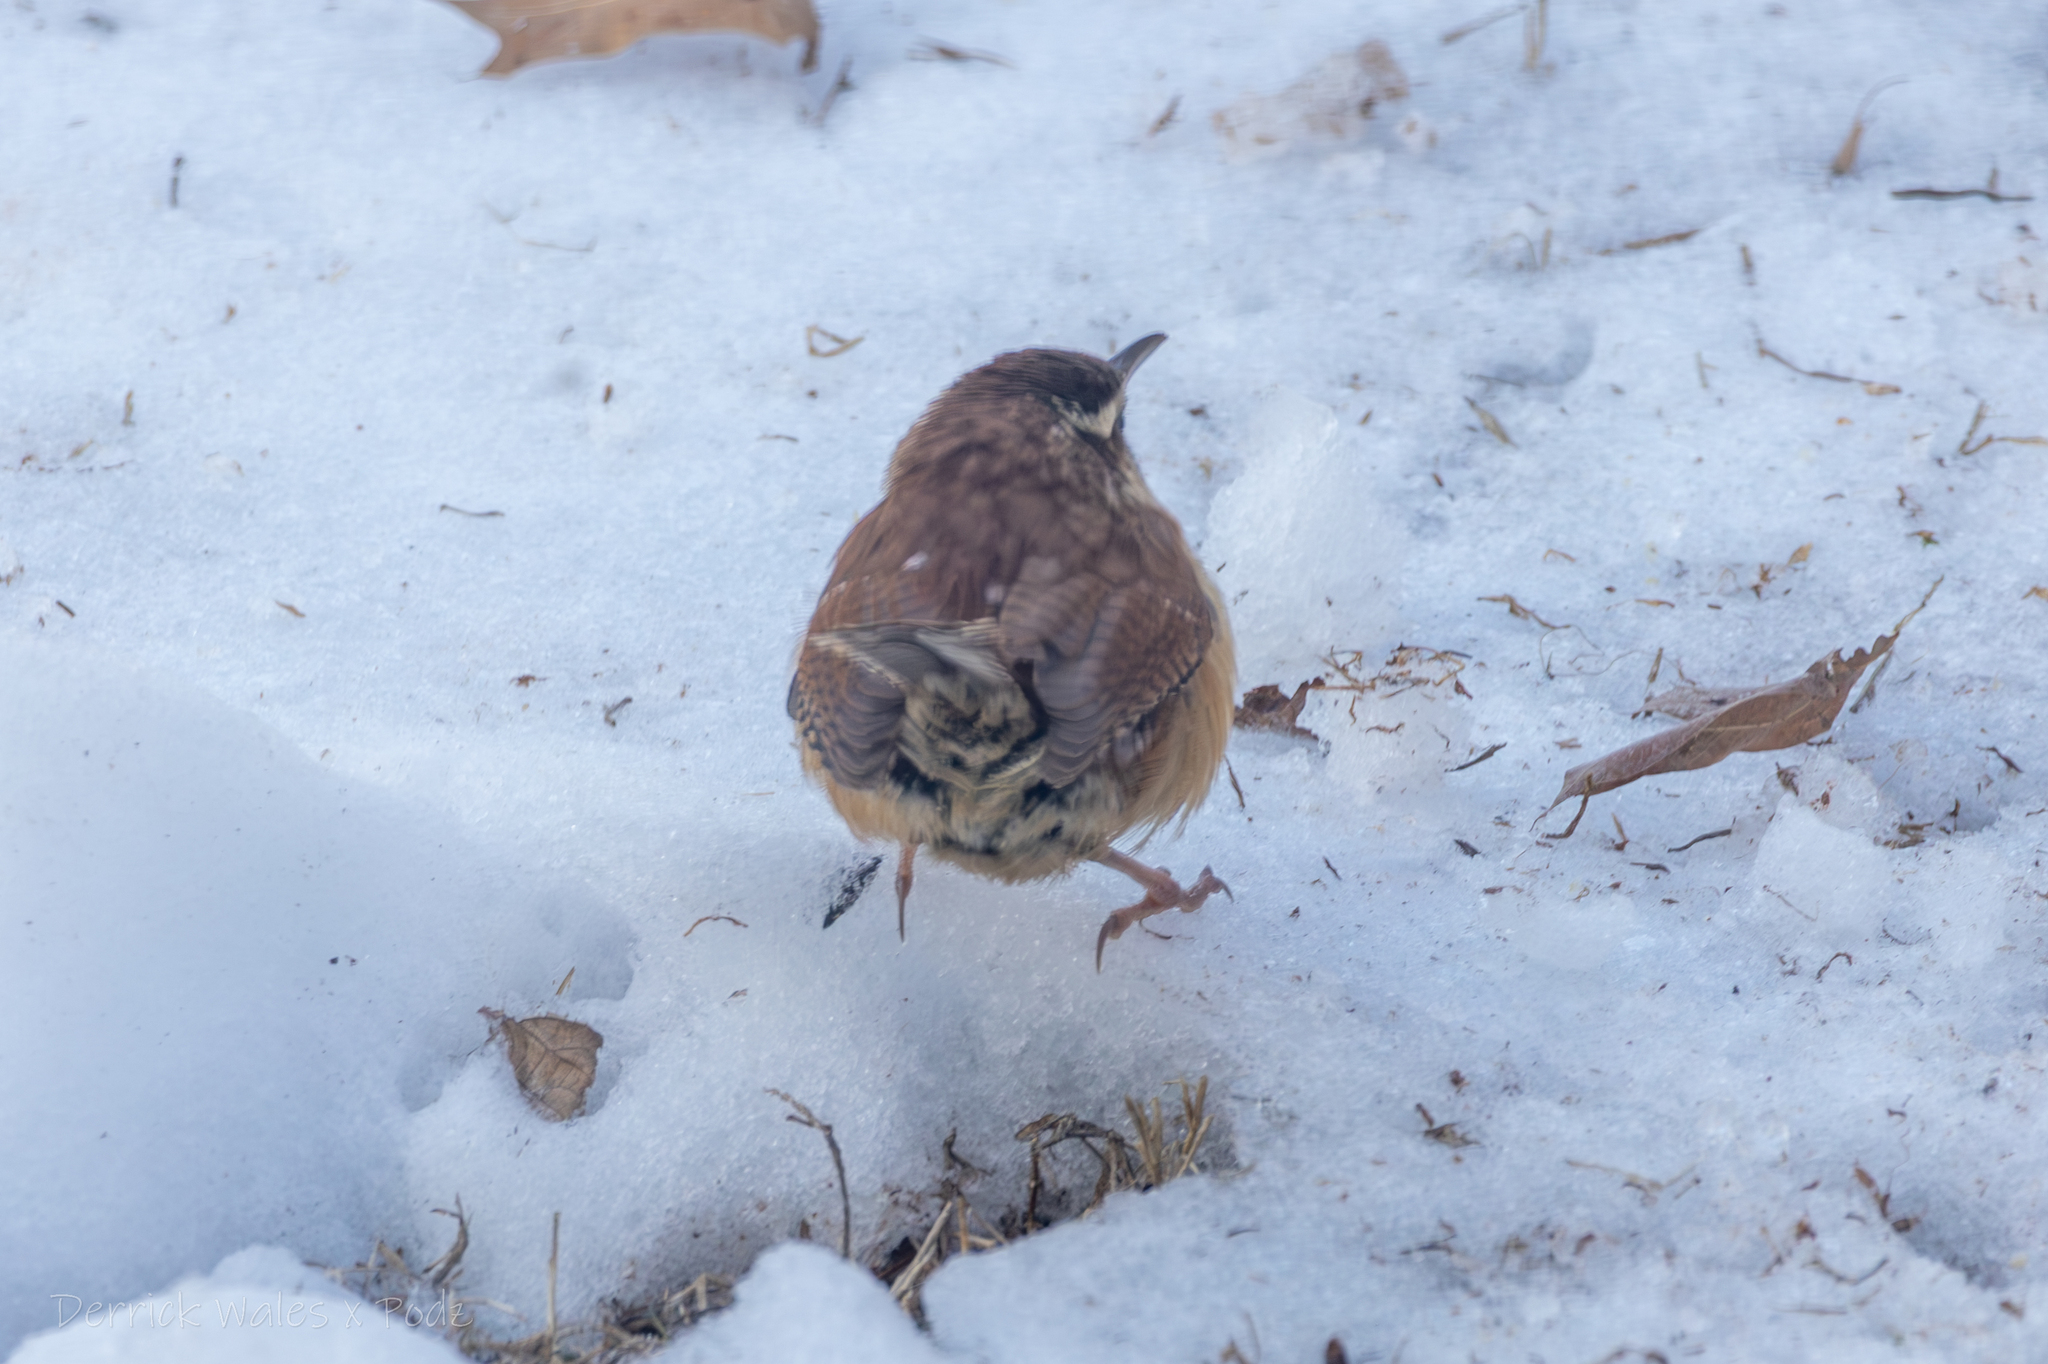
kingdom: Animalia
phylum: Chordata
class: Aves
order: Passeriformes
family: Troglodytidae
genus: Thryothorus
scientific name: Thryothorus ludovicianus
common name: Carolina wren
